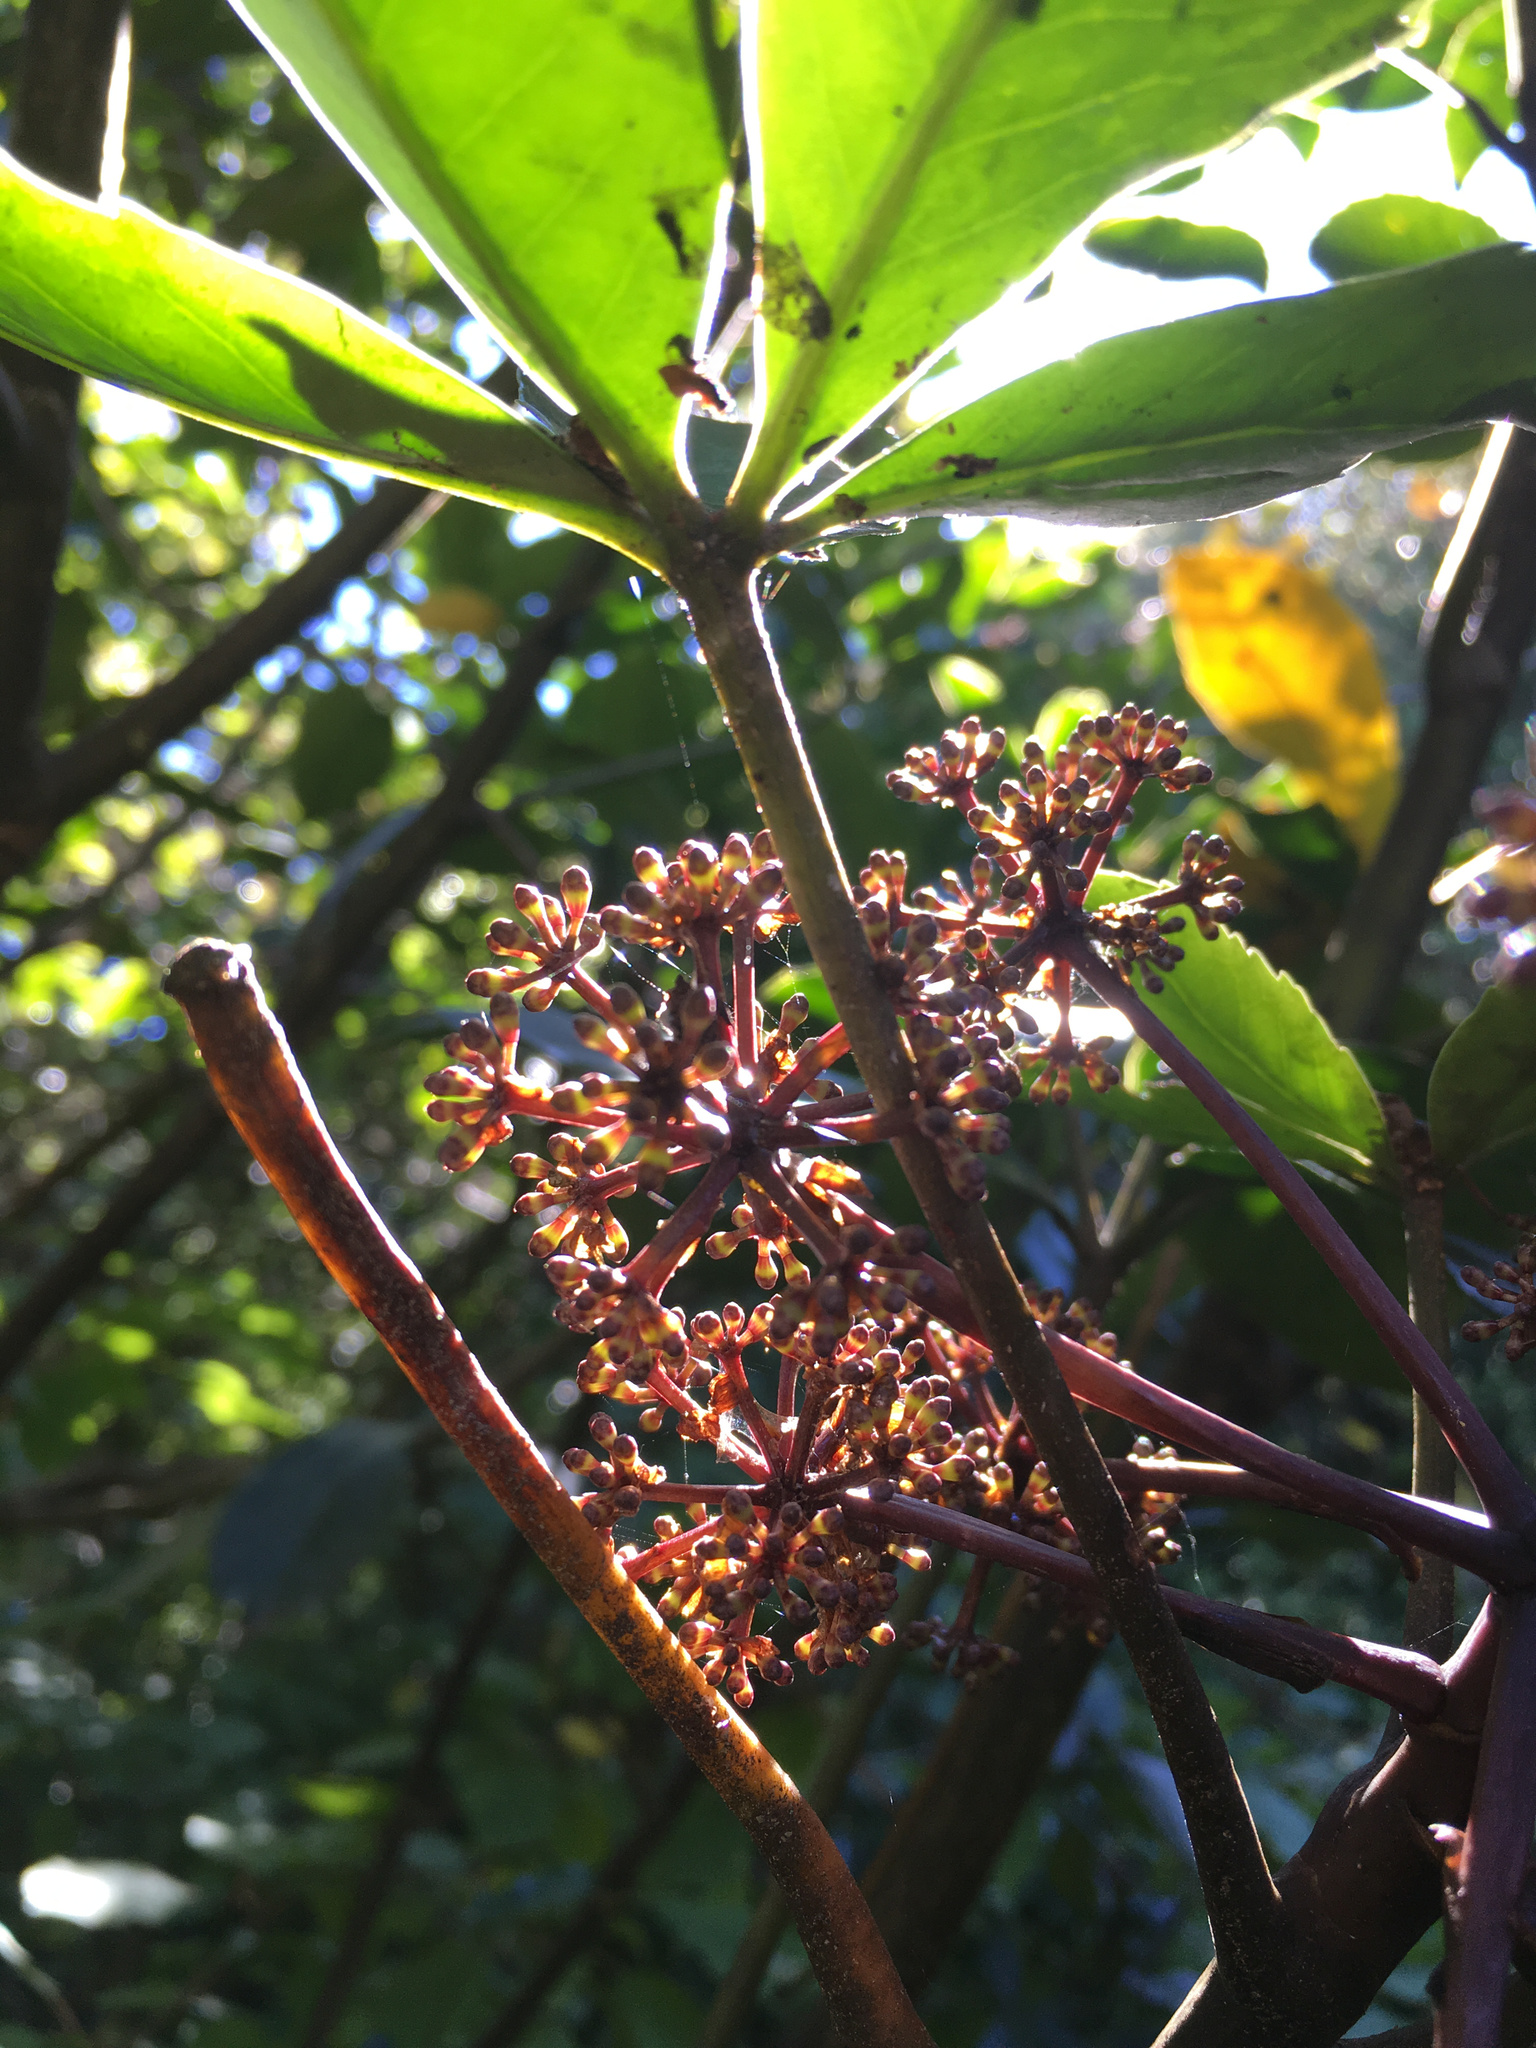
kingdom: Plantae
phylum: Tracheophyta
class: Magnoliopsida
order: Apiales
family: Araliaceae
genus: Neopanax
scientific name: Neopanax arboreus
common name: Five-fingers
